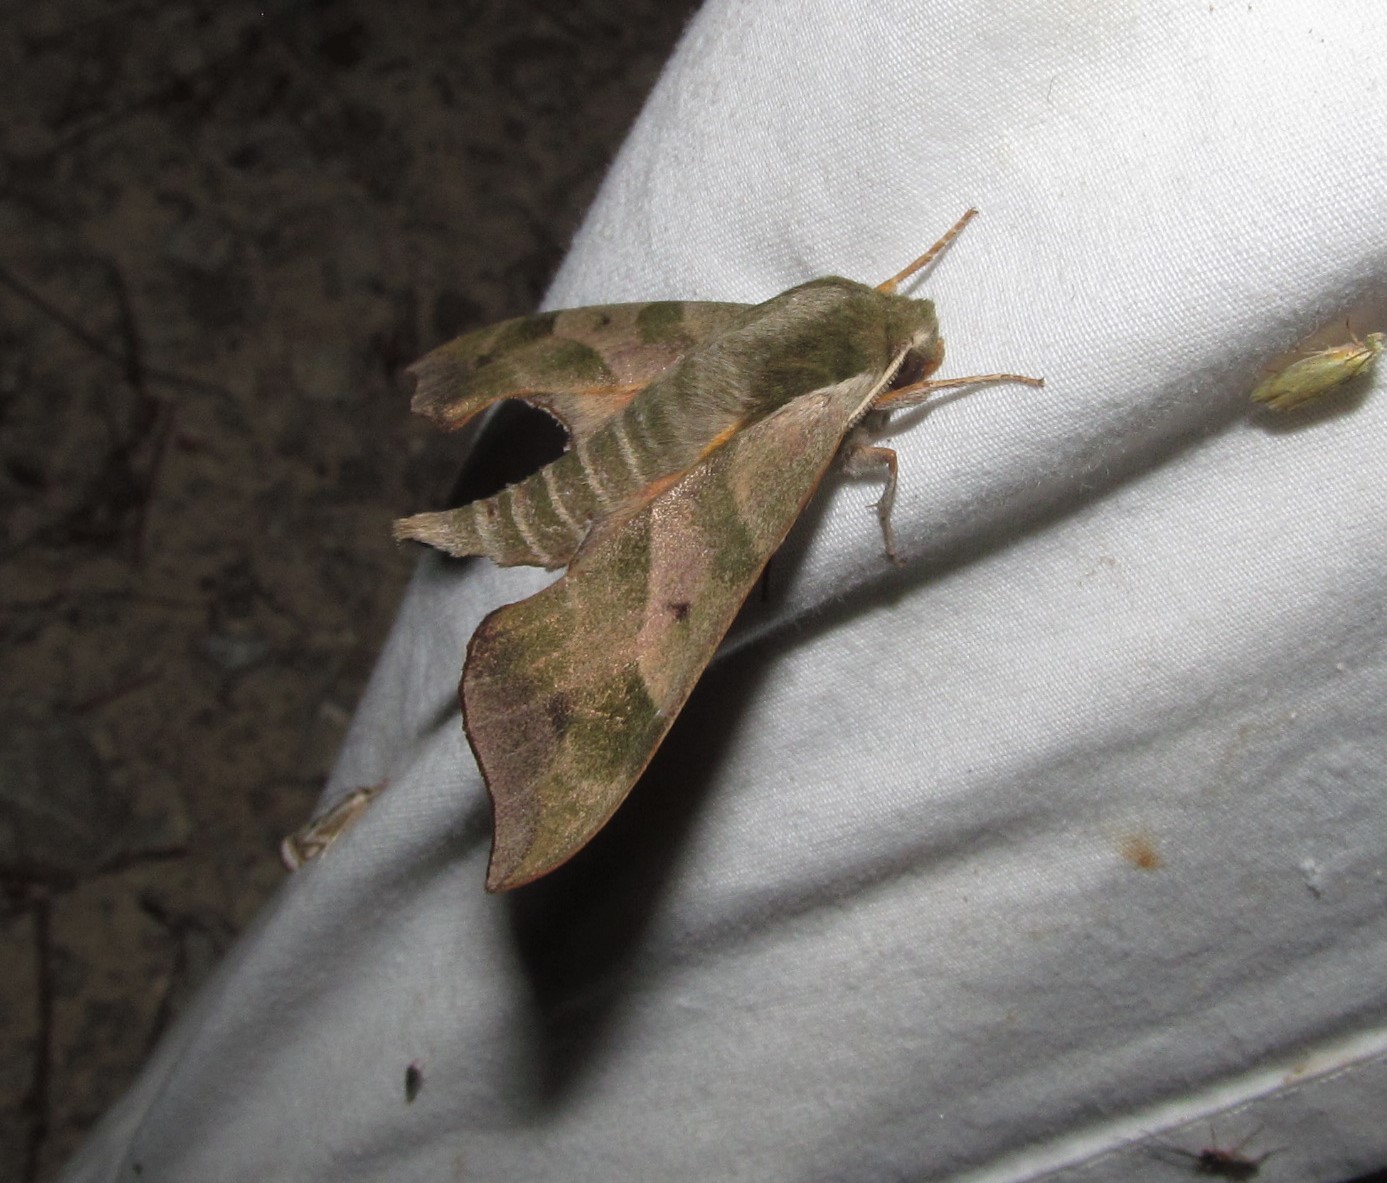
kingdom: Animalia
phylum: Arthropoda
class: Insecta
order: Lepidoptera
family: Sphingidae
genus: Darapsa
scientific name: Darapsa myron
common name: Hog sphinx
